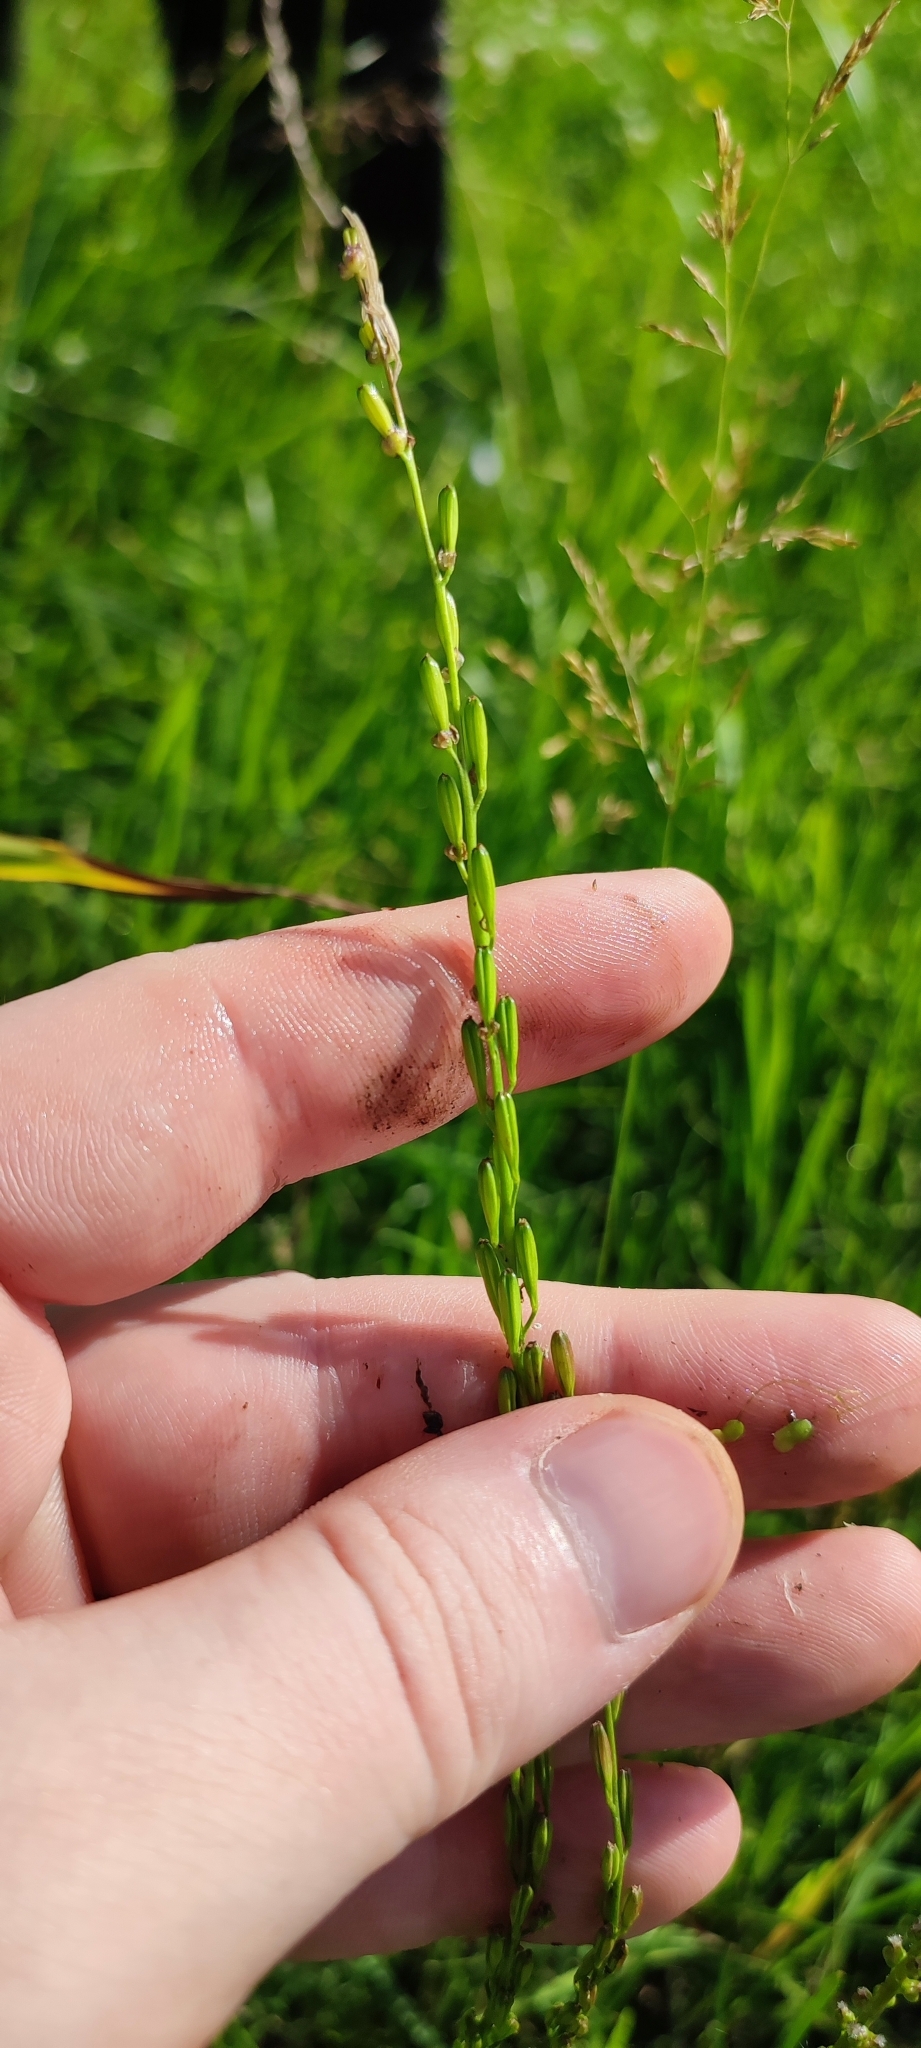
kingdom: Plantae
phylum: Tracheophyta
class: Liliopsida
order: Alismatales
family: Juncaginaceae
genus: Triglochin
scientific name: Triglochin palustris
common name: Marsh arrowgrass
